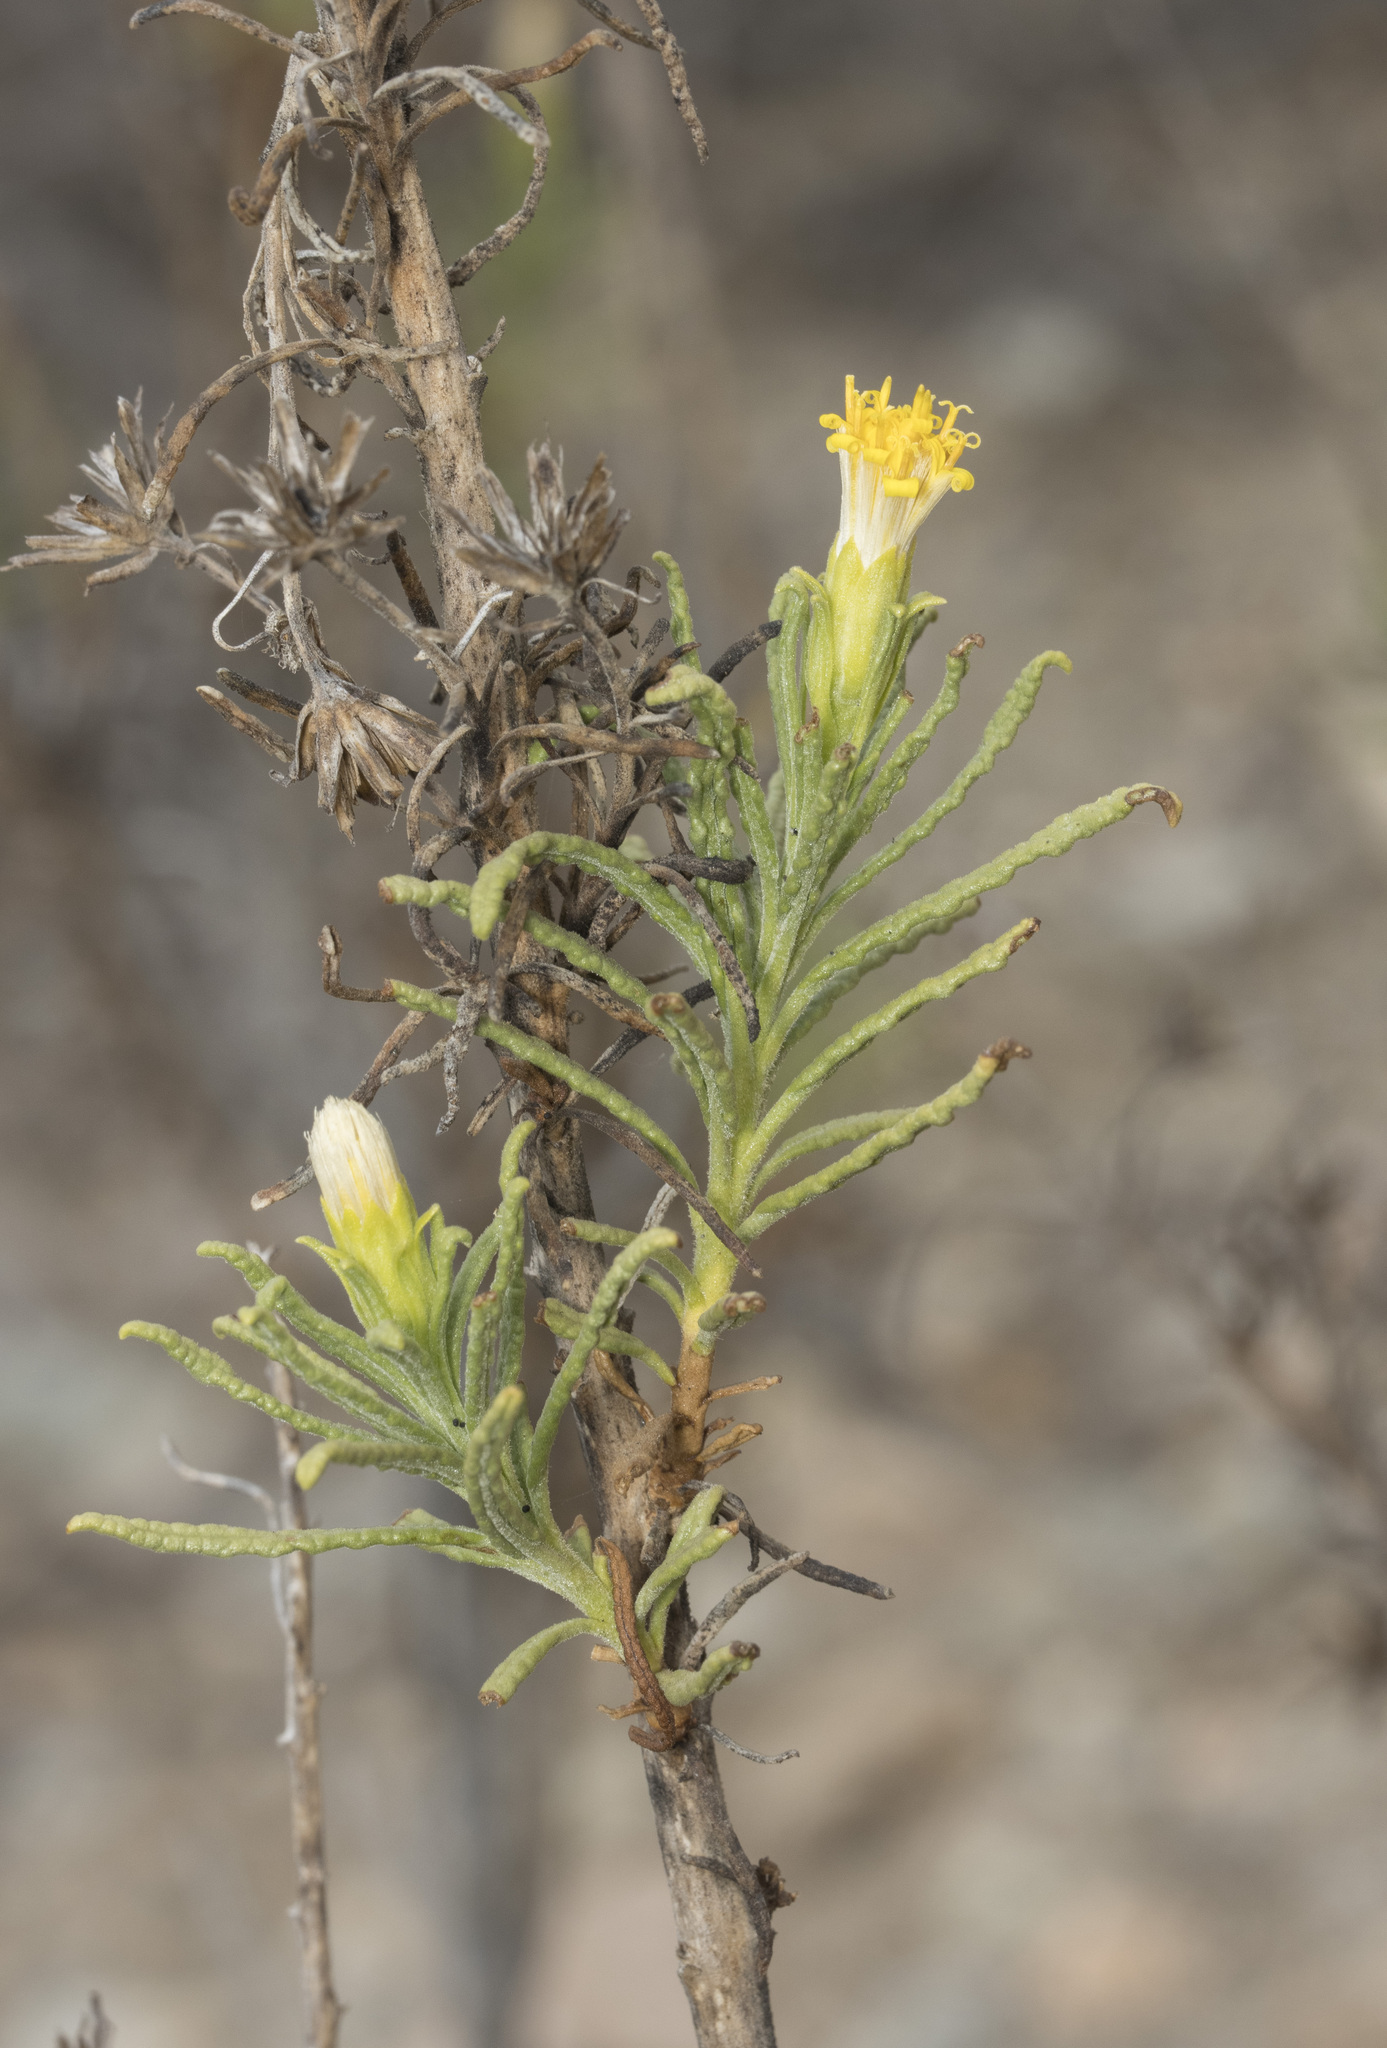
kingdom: Plantae
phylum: Tracheophyta
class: Magnoliopsida
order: Asterales
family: Asteraceae
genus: Jungia
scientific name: Jungia revoluta
